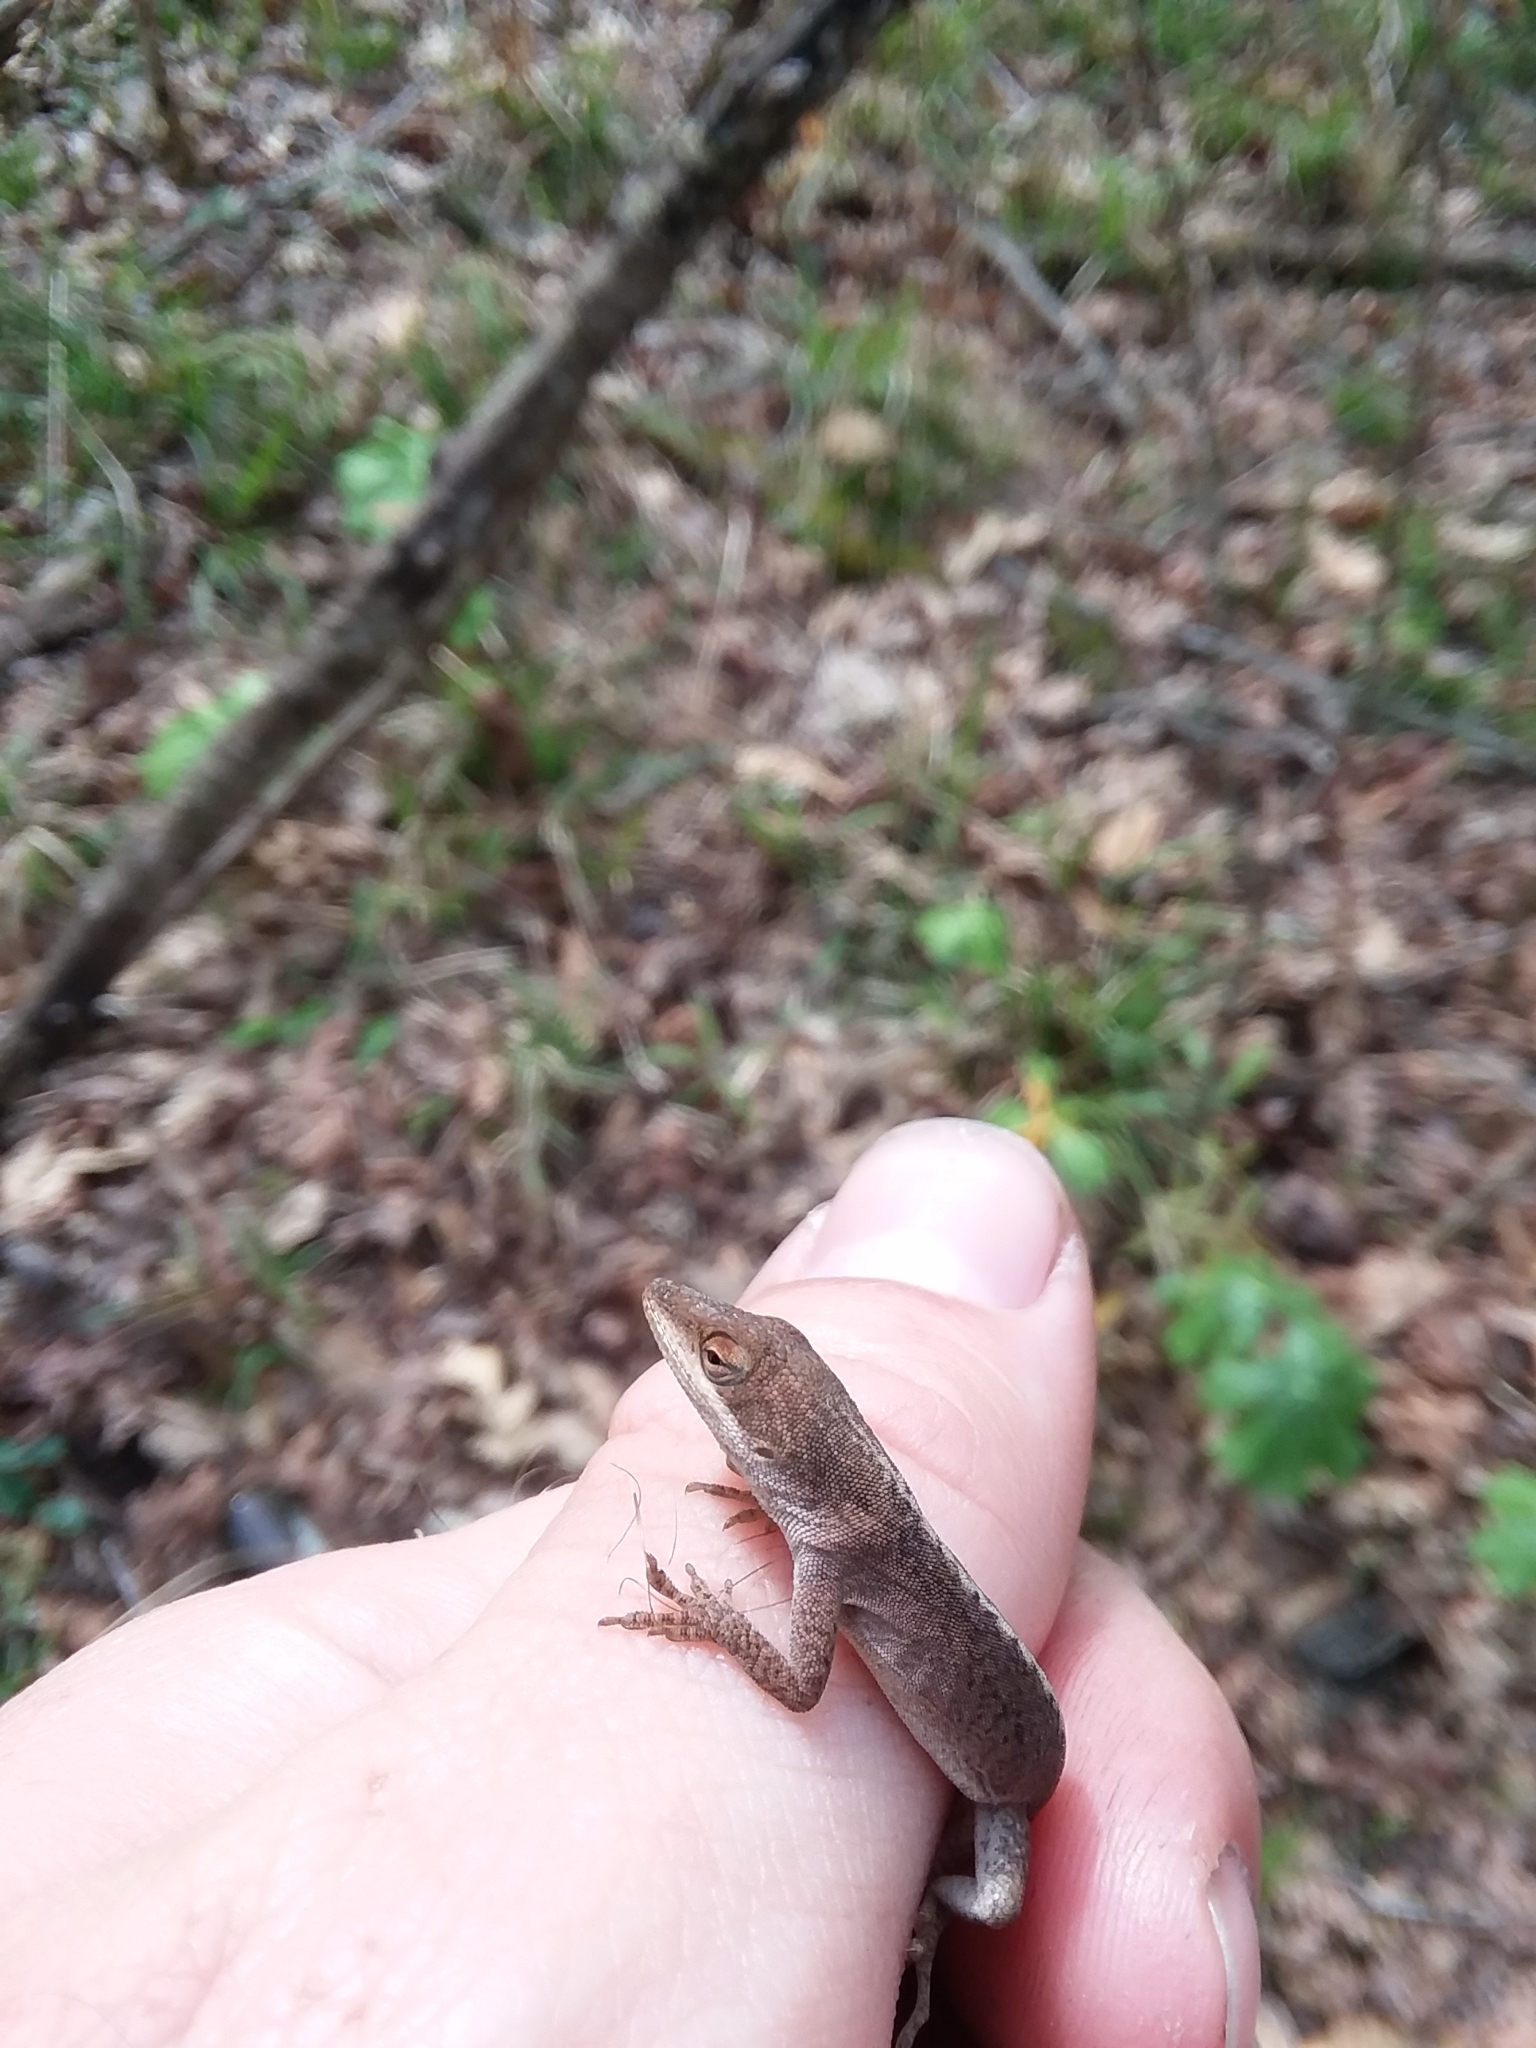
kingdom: Animalia
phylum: Chordata
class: Squamata
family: Dactyloidae
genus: Anolis
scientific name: Anolis carolinensis
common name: Green anole
